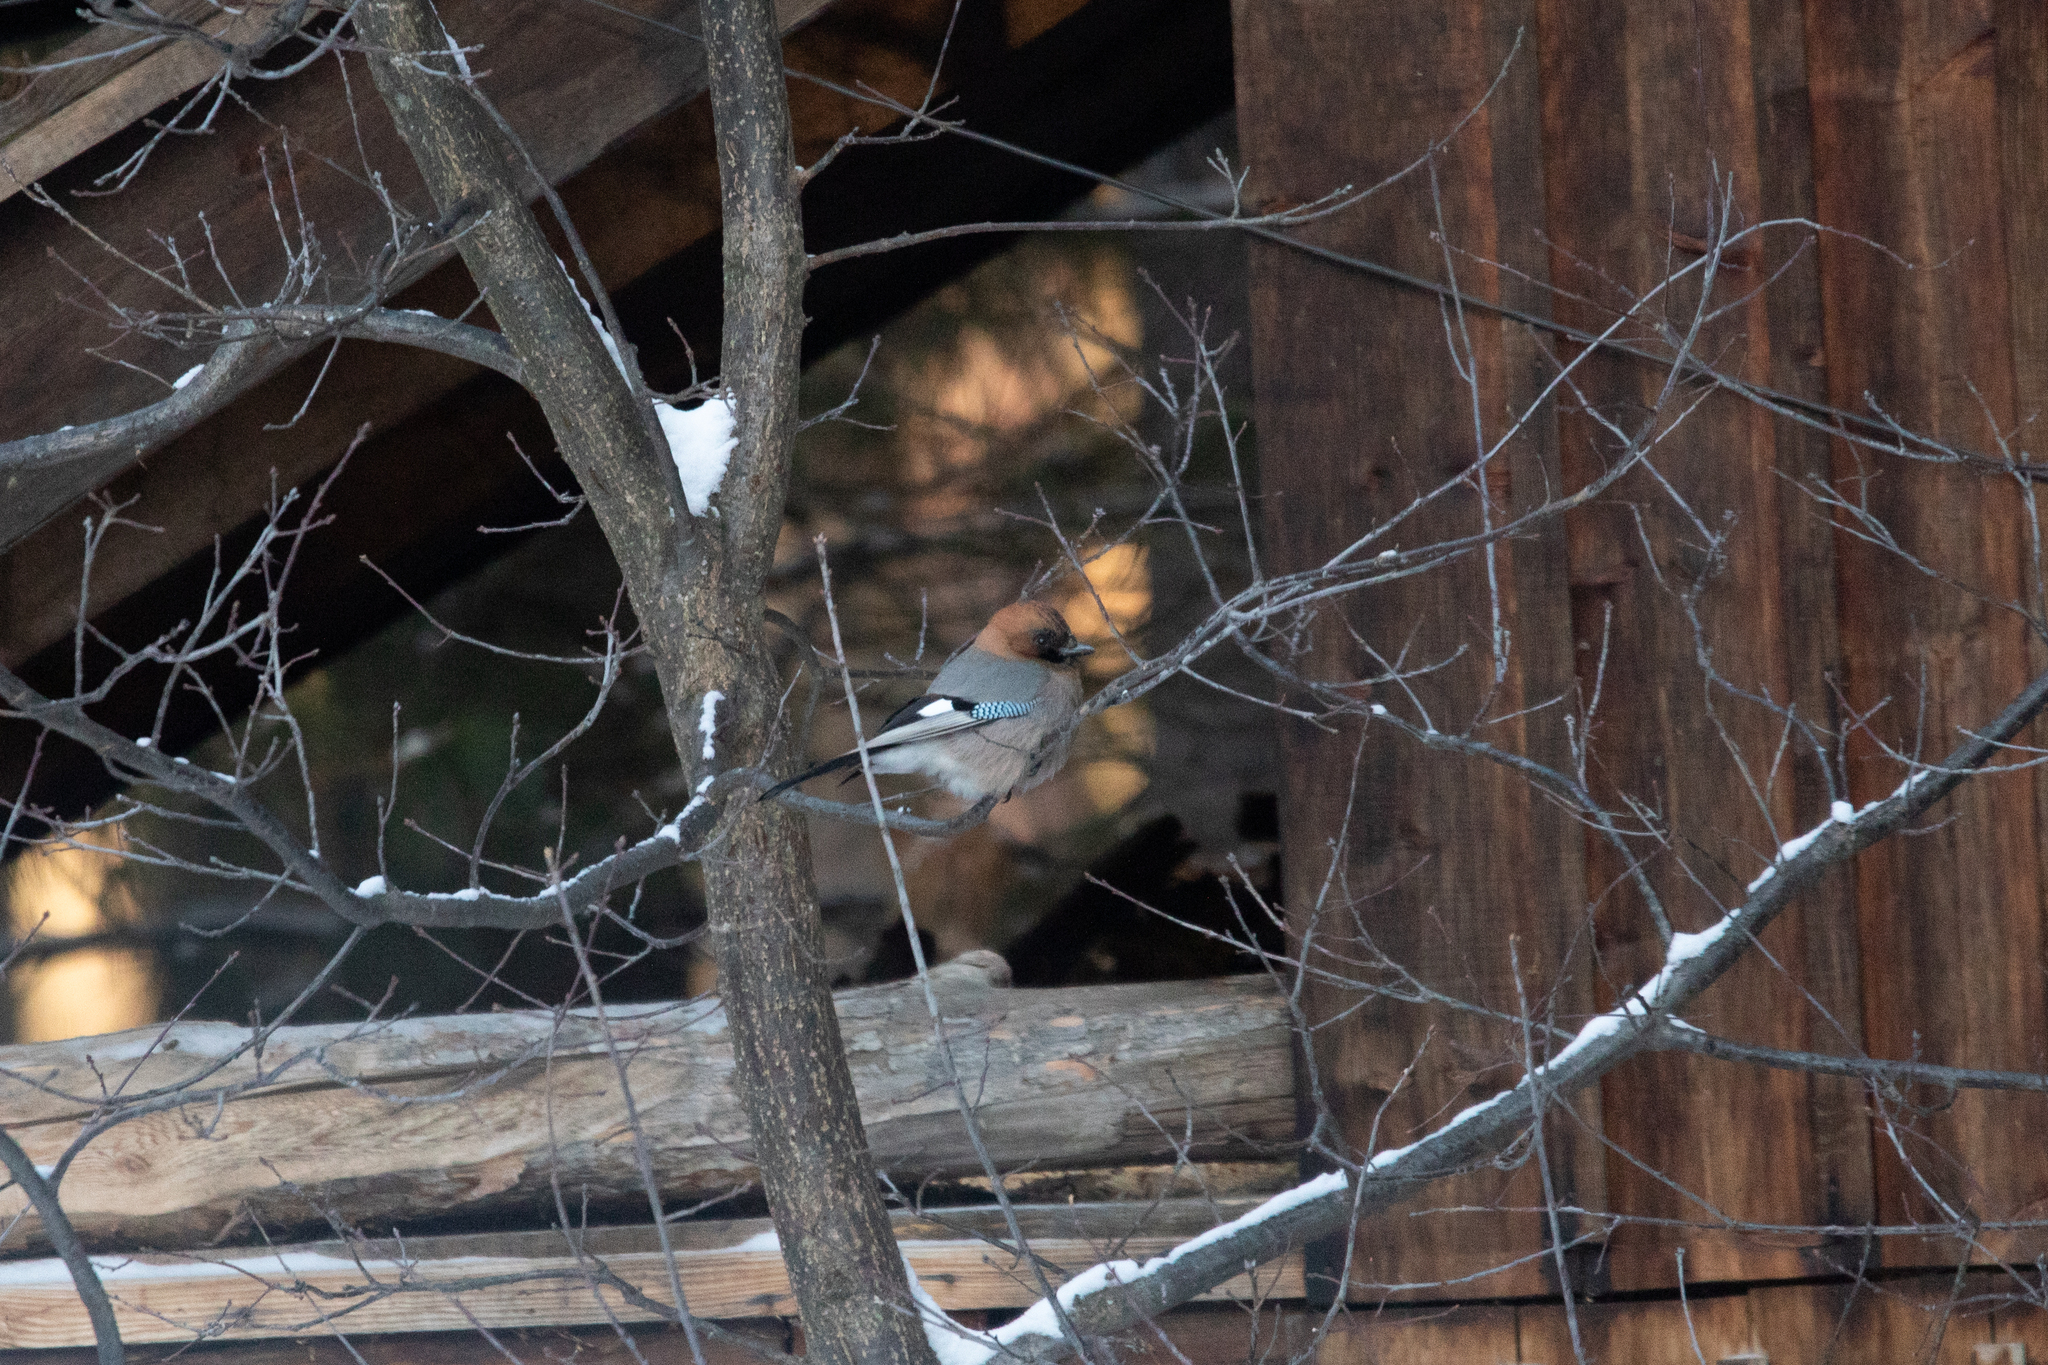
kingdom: Animalia
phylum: Chordata
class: Aves
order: Passeriformes
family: Corvidae
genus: Garrulus
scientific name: Garrulus glandarius
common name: Eurasian jay
